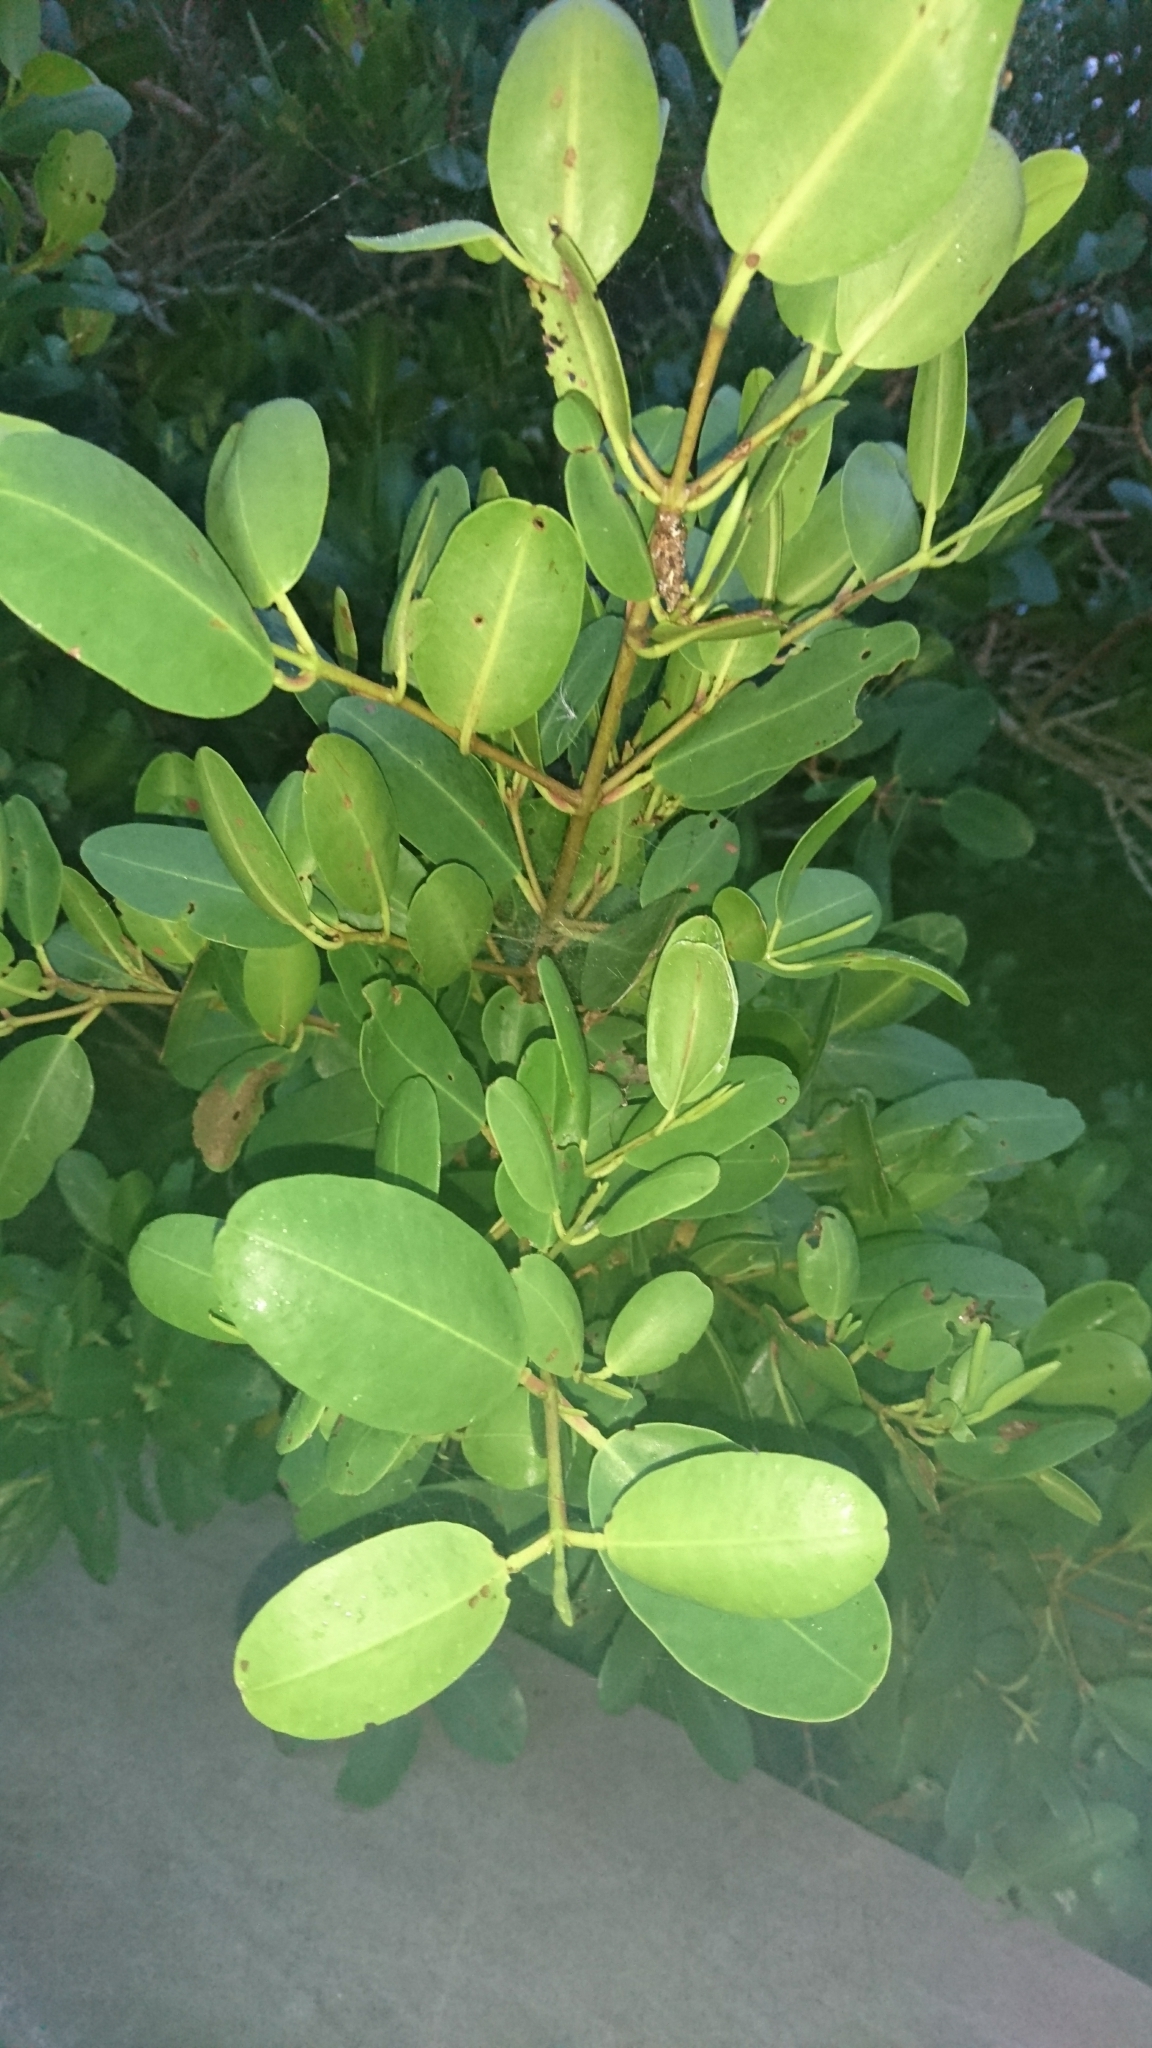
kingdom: Plantae
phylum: Tracheophyta
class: Magnoliopsida
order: Myrtales
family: Combretaceae
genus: Laguncularia
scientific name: Laguncularia racemosa
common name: White mangrove
